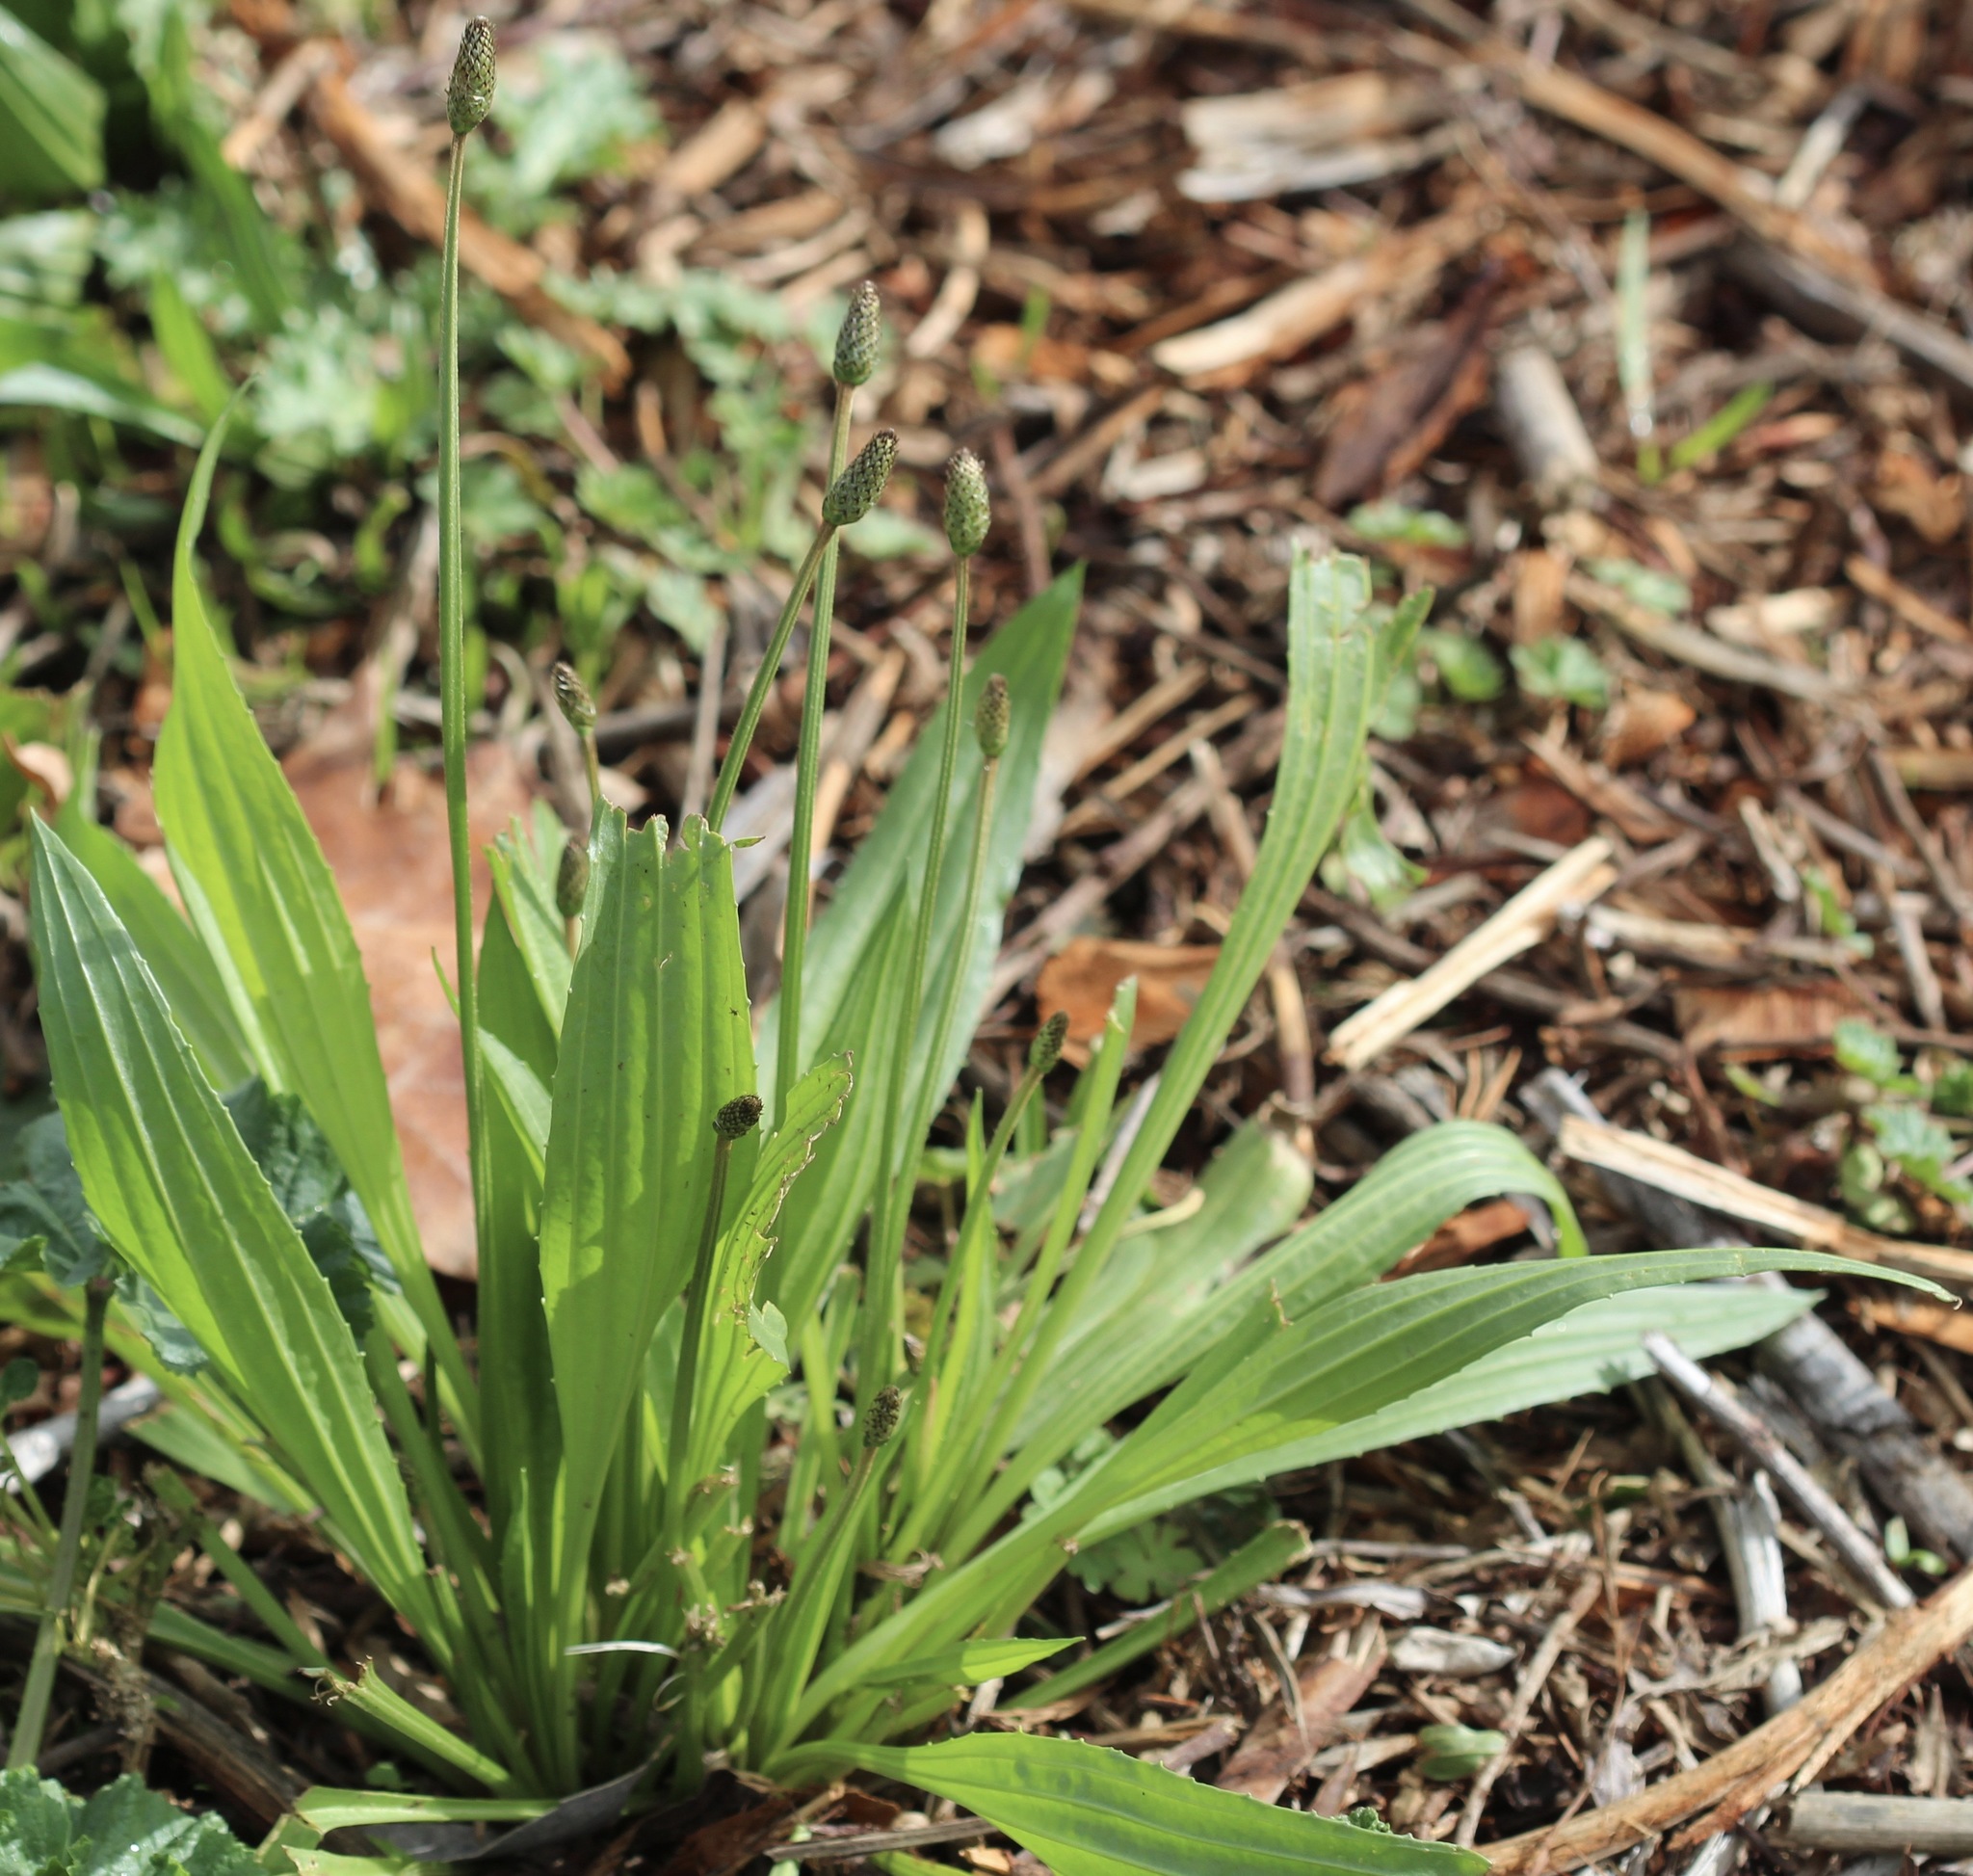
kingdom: Plantae
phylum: Tracheophyta
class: Magnoliopsida
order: Lamiales
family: Plantaginaceae
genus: Plantago
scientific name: Plantago lanceolata
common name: Ribwort plantain
